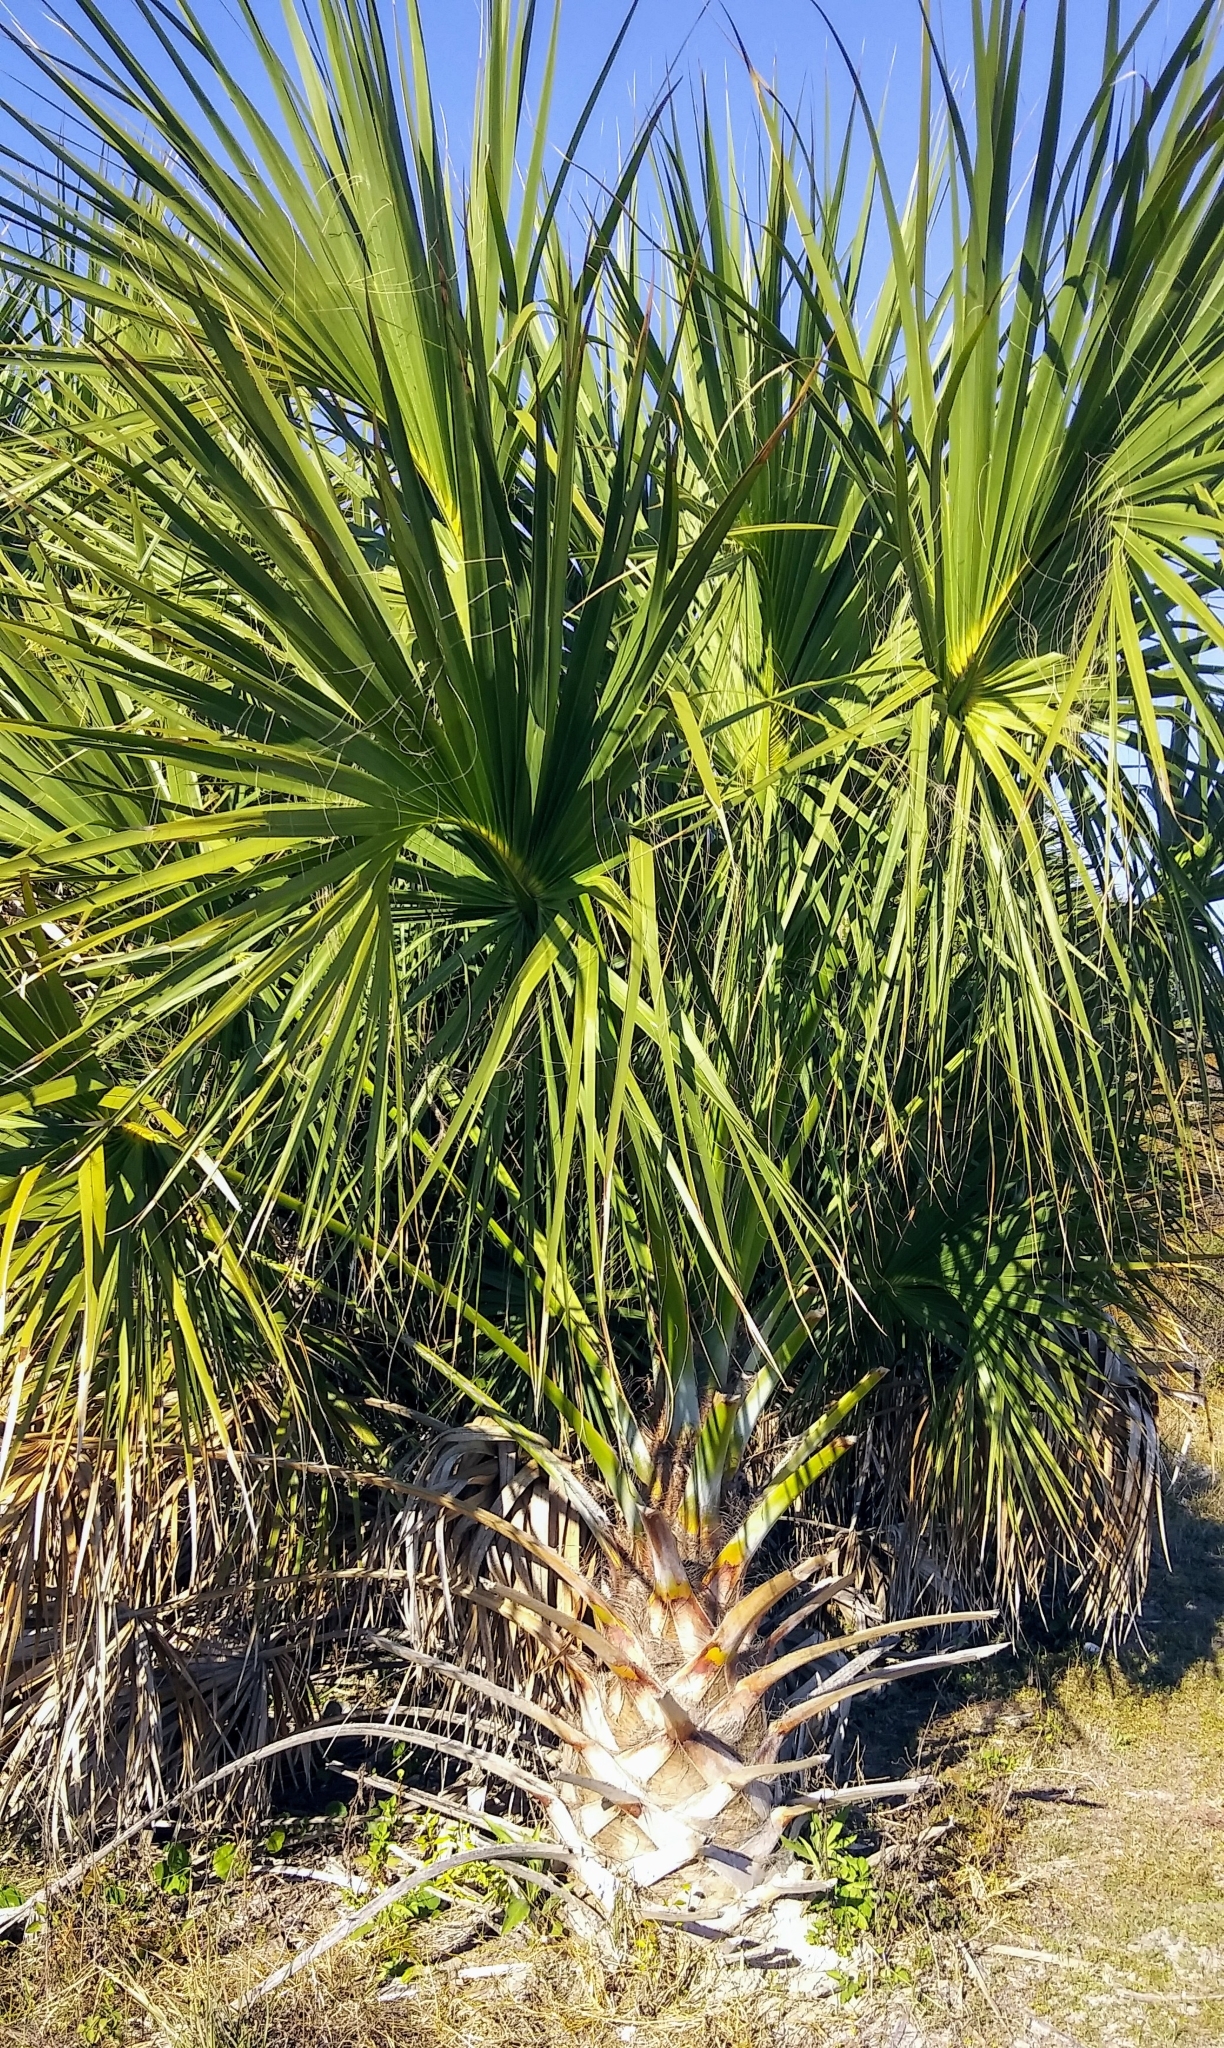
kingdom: Plantae
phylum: Tracheophyta
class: Liliopsida
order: Arecales
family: Arecaceae
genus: Sabal
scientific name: Sabal palmetto
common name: Blue palmetto
